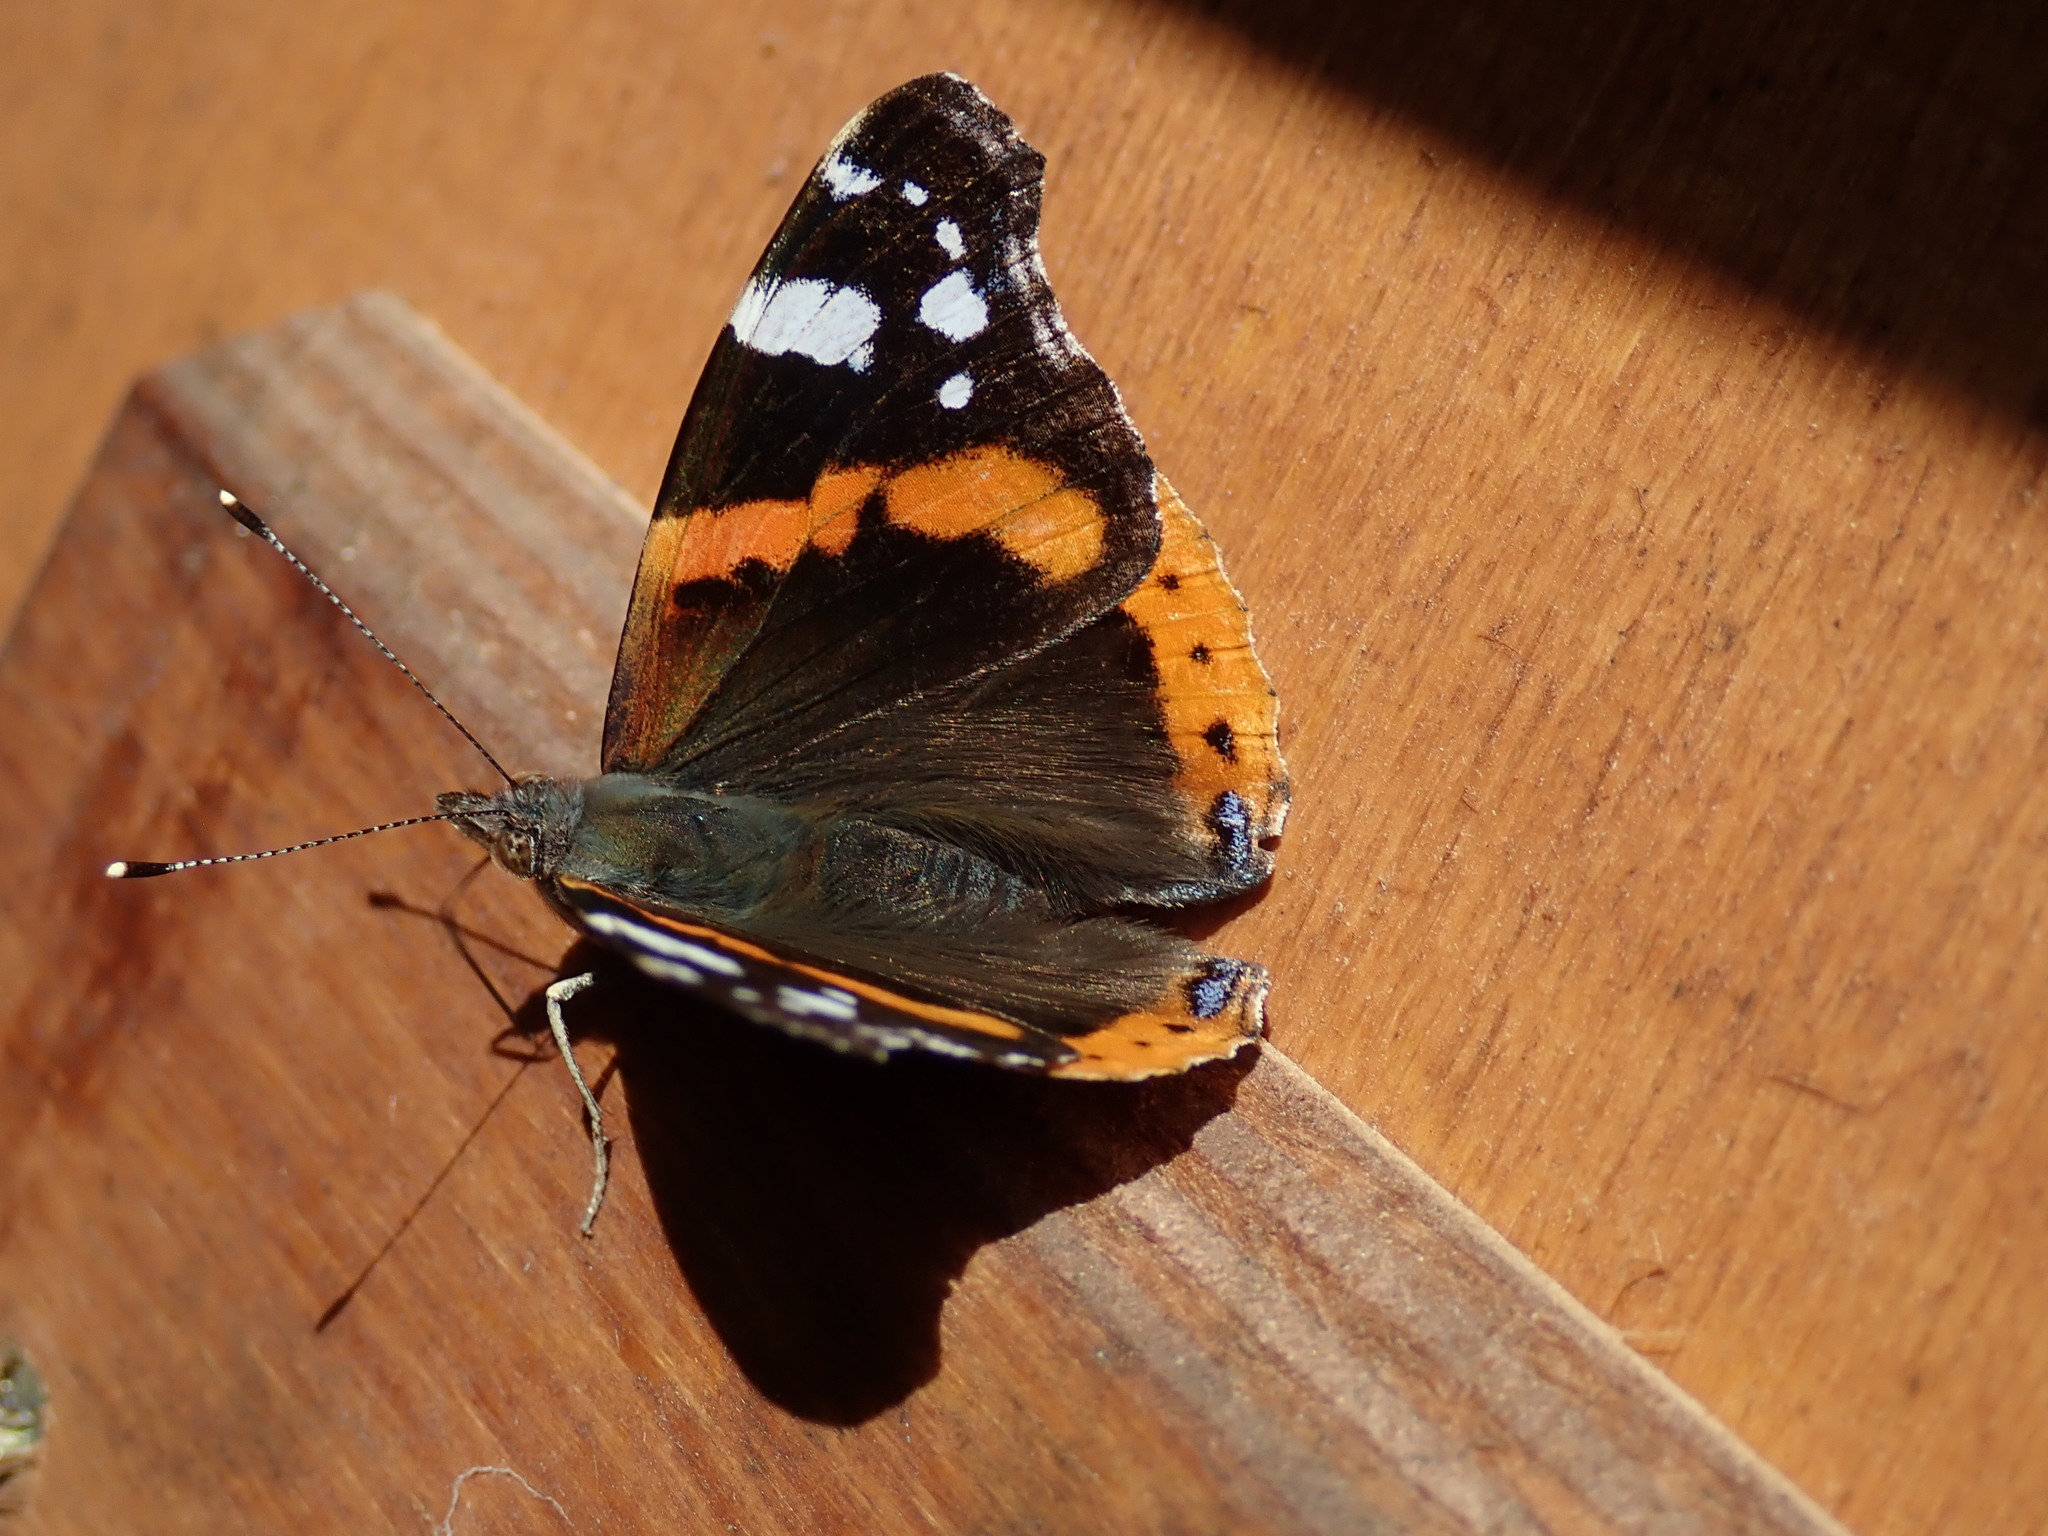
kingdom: Animalia
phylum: Arthropoda
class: Insecta
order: Lepidoptera
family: Nymphalidae
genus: Vanessa
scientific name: Vanessa atalanta
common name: Red admiral
